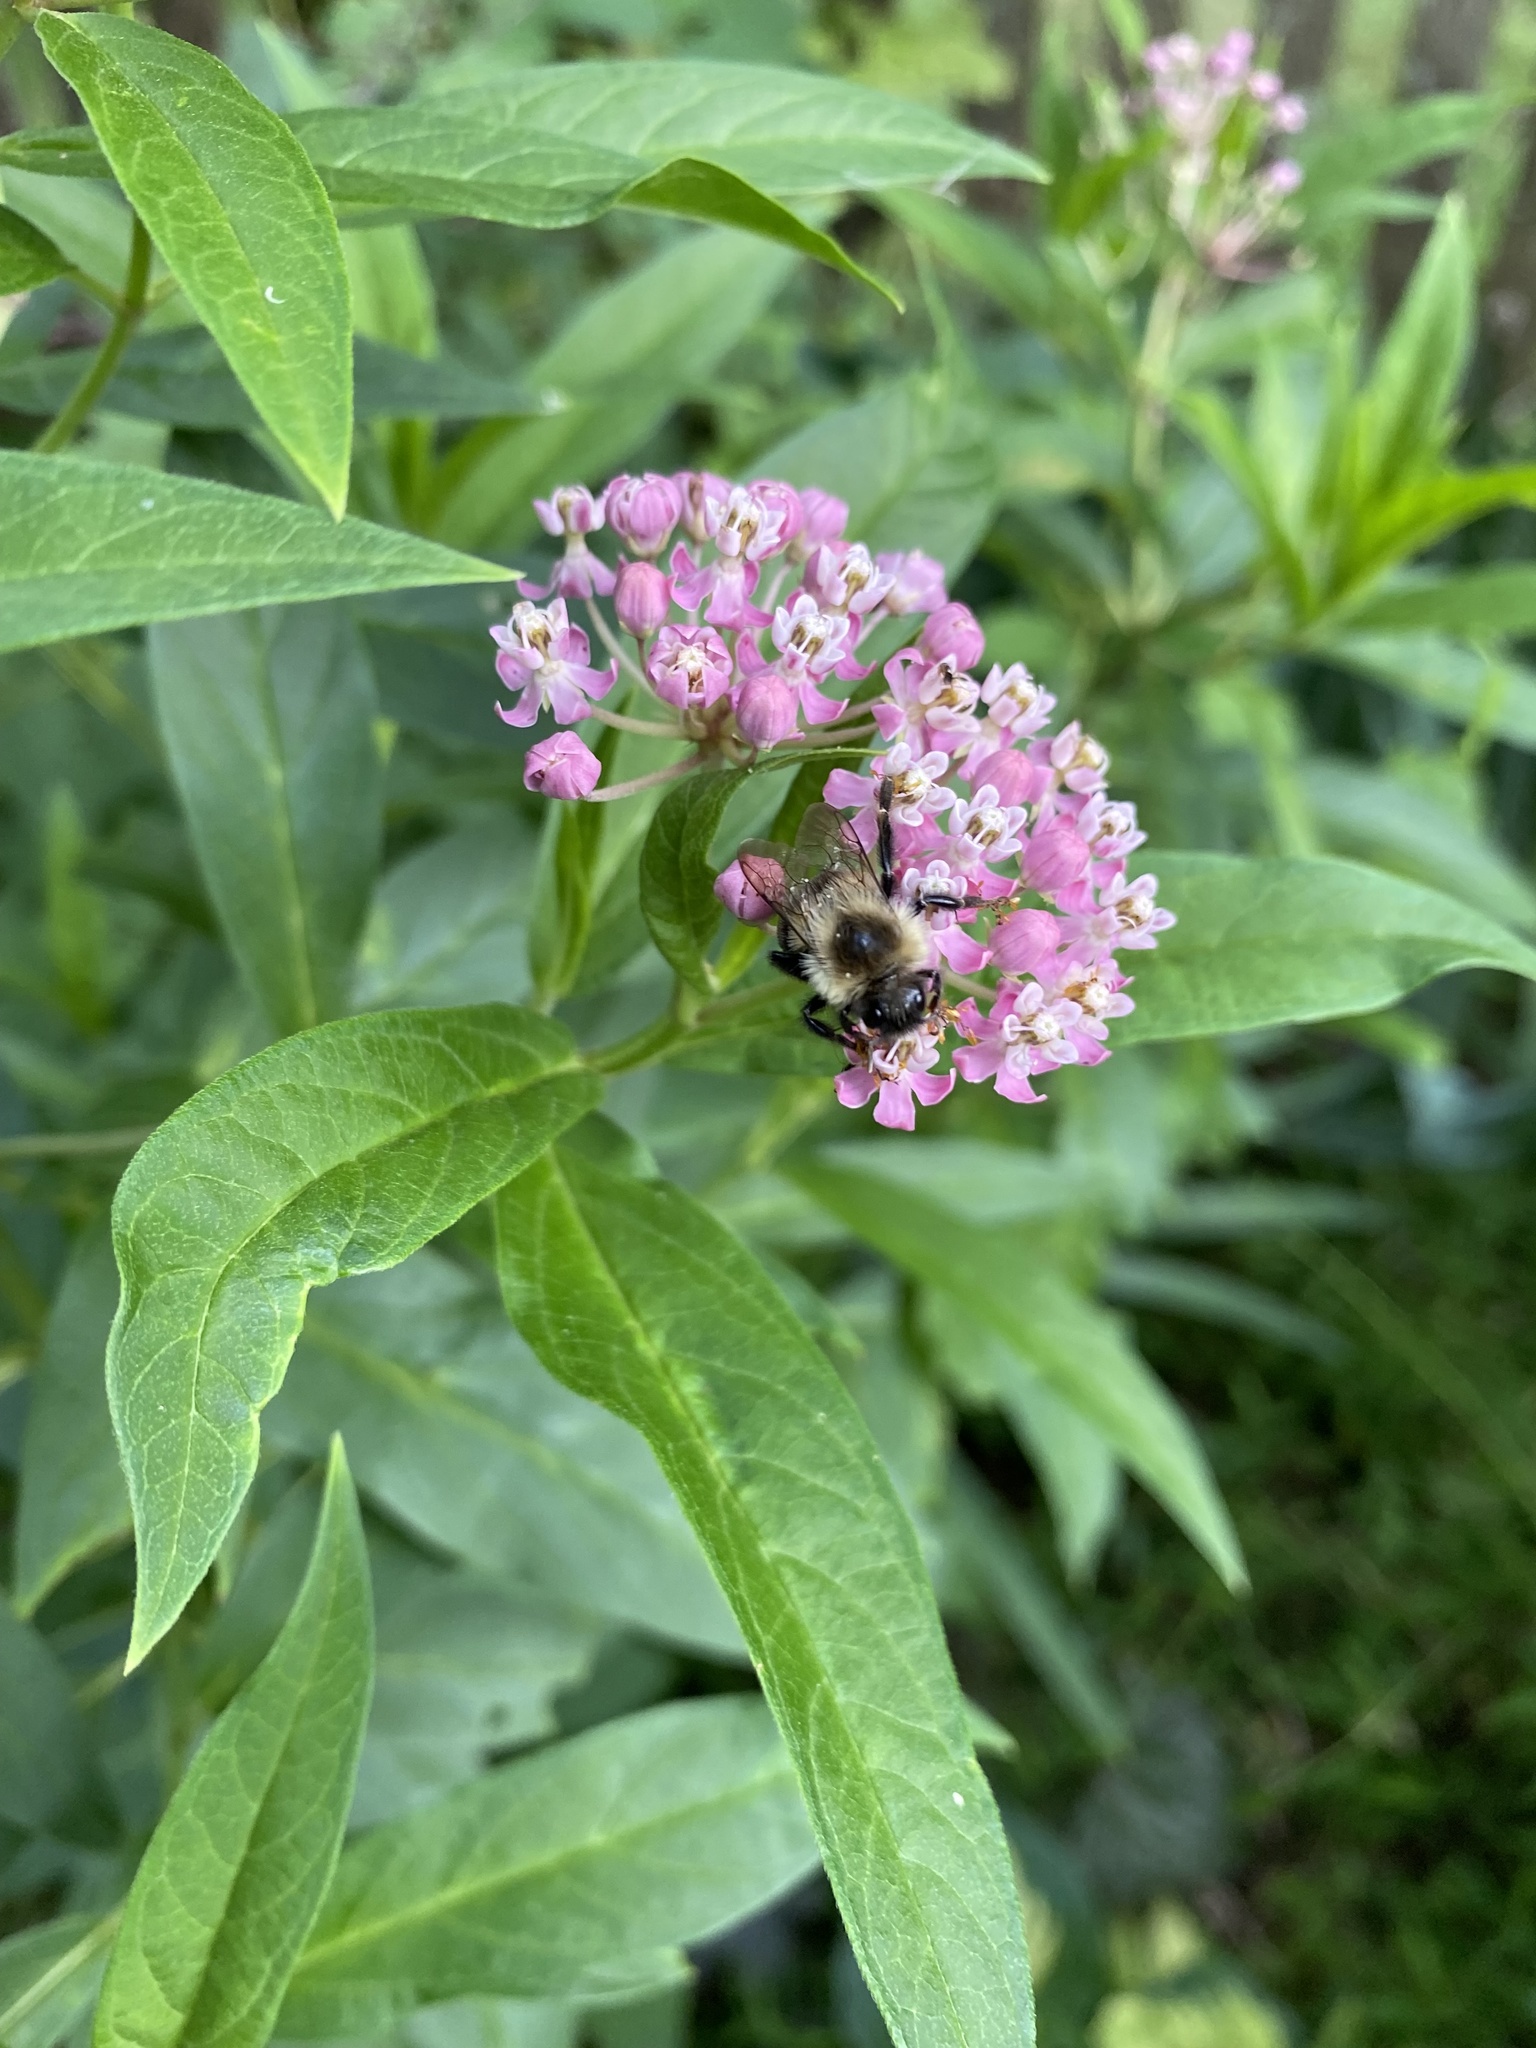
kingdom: Animalia
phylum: Arthropoda
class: Insecta
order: Hymenoptera
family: Apidae
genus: Bombus
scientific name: Bombus impatiens
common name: Common eastern bumble bee
